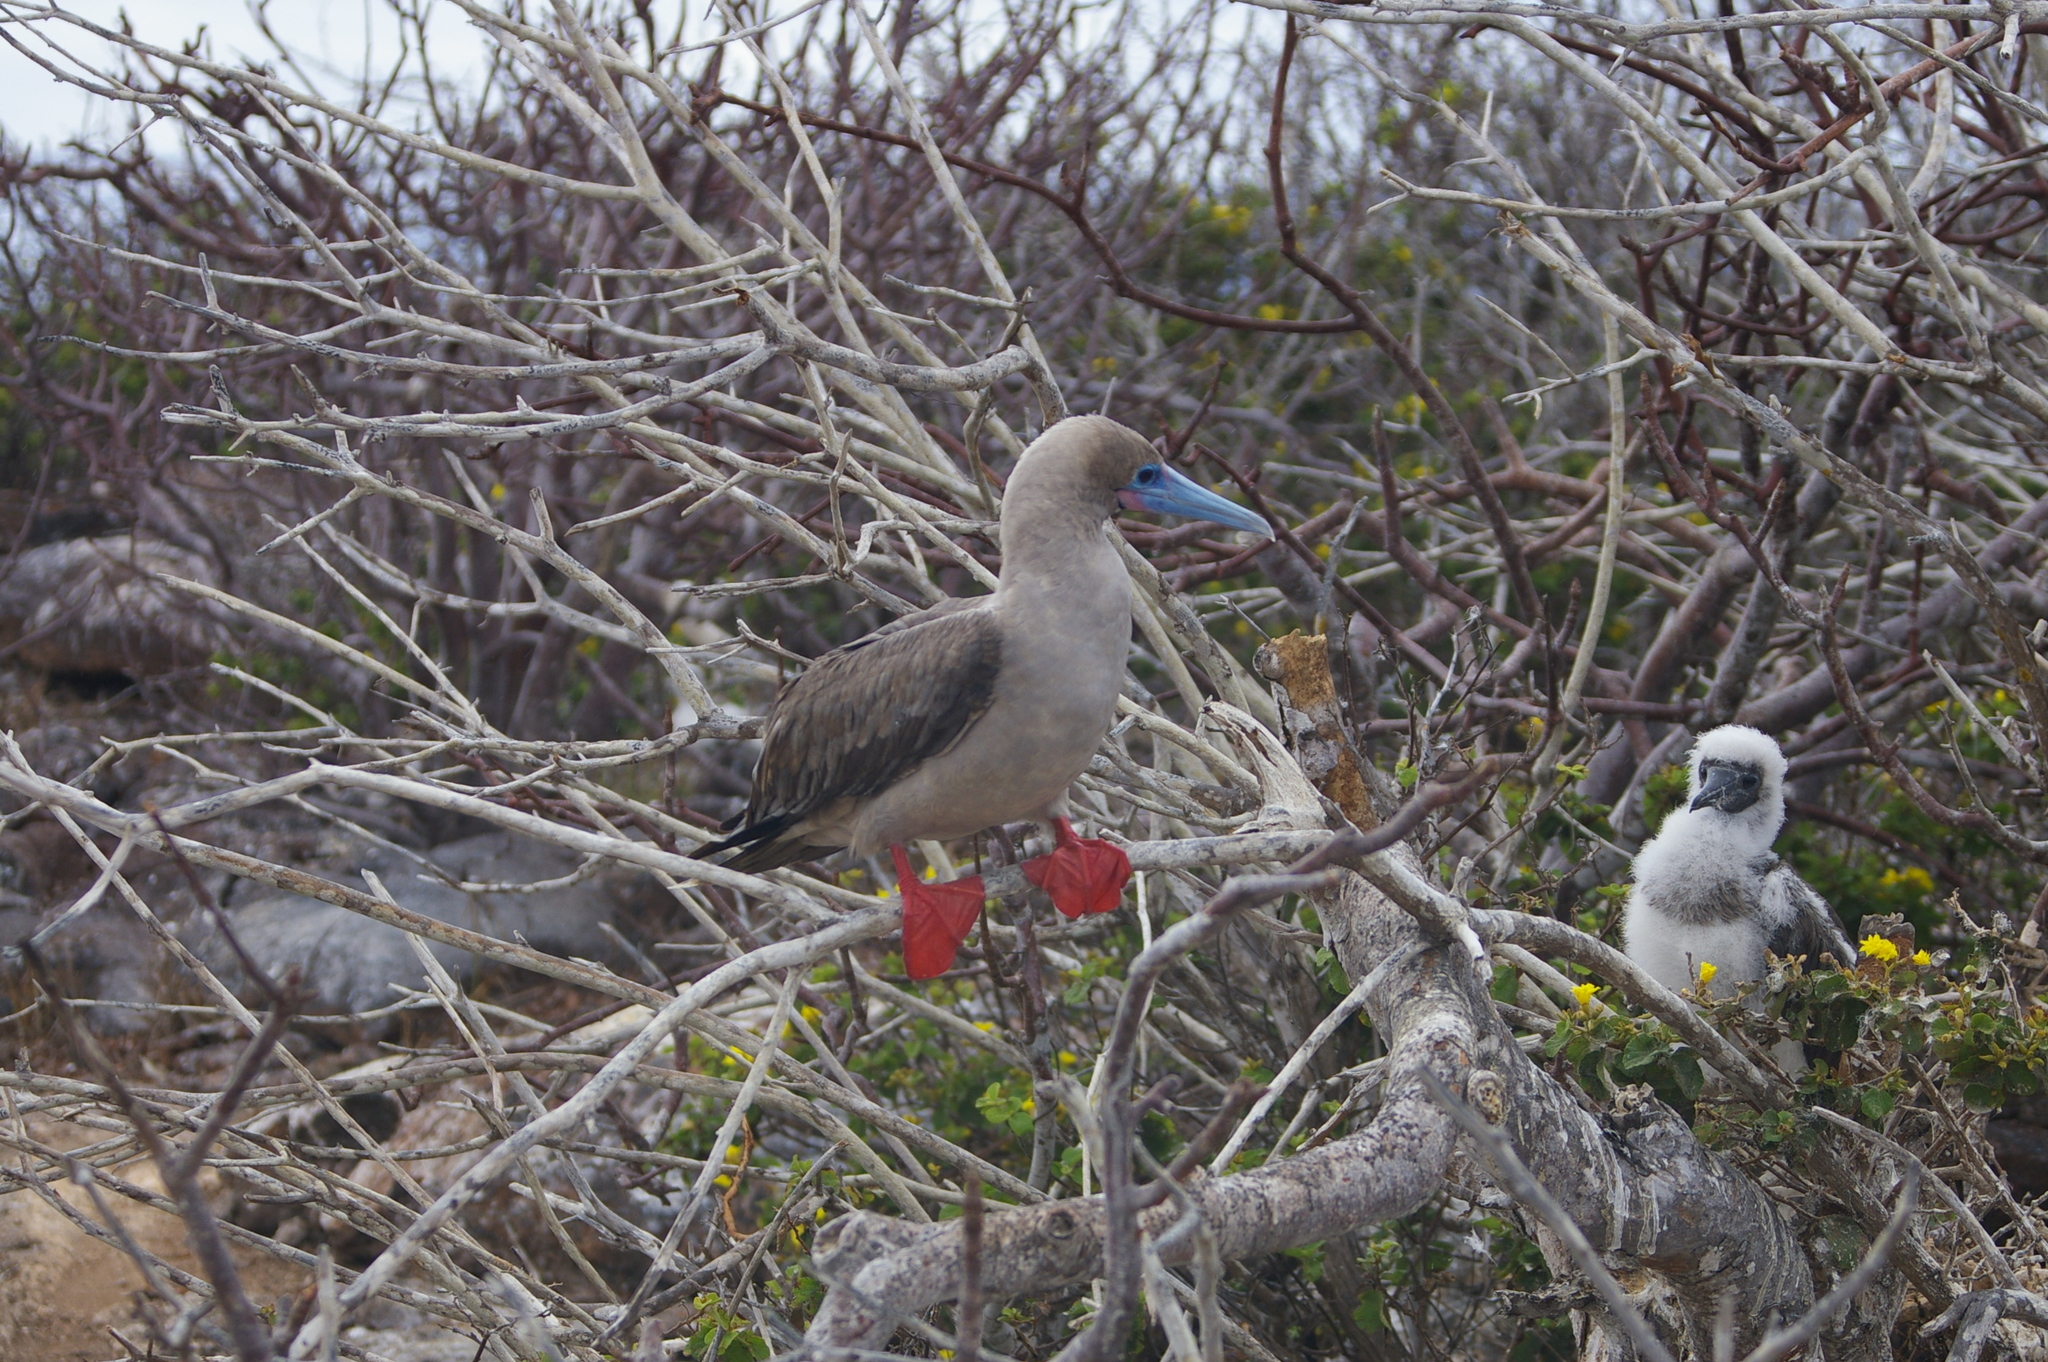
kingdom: Animalia
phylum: Chordata
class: Aves
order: Suliformes
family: Sulidae
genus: Sula
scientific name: Sula sula
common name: Red-footed booby
